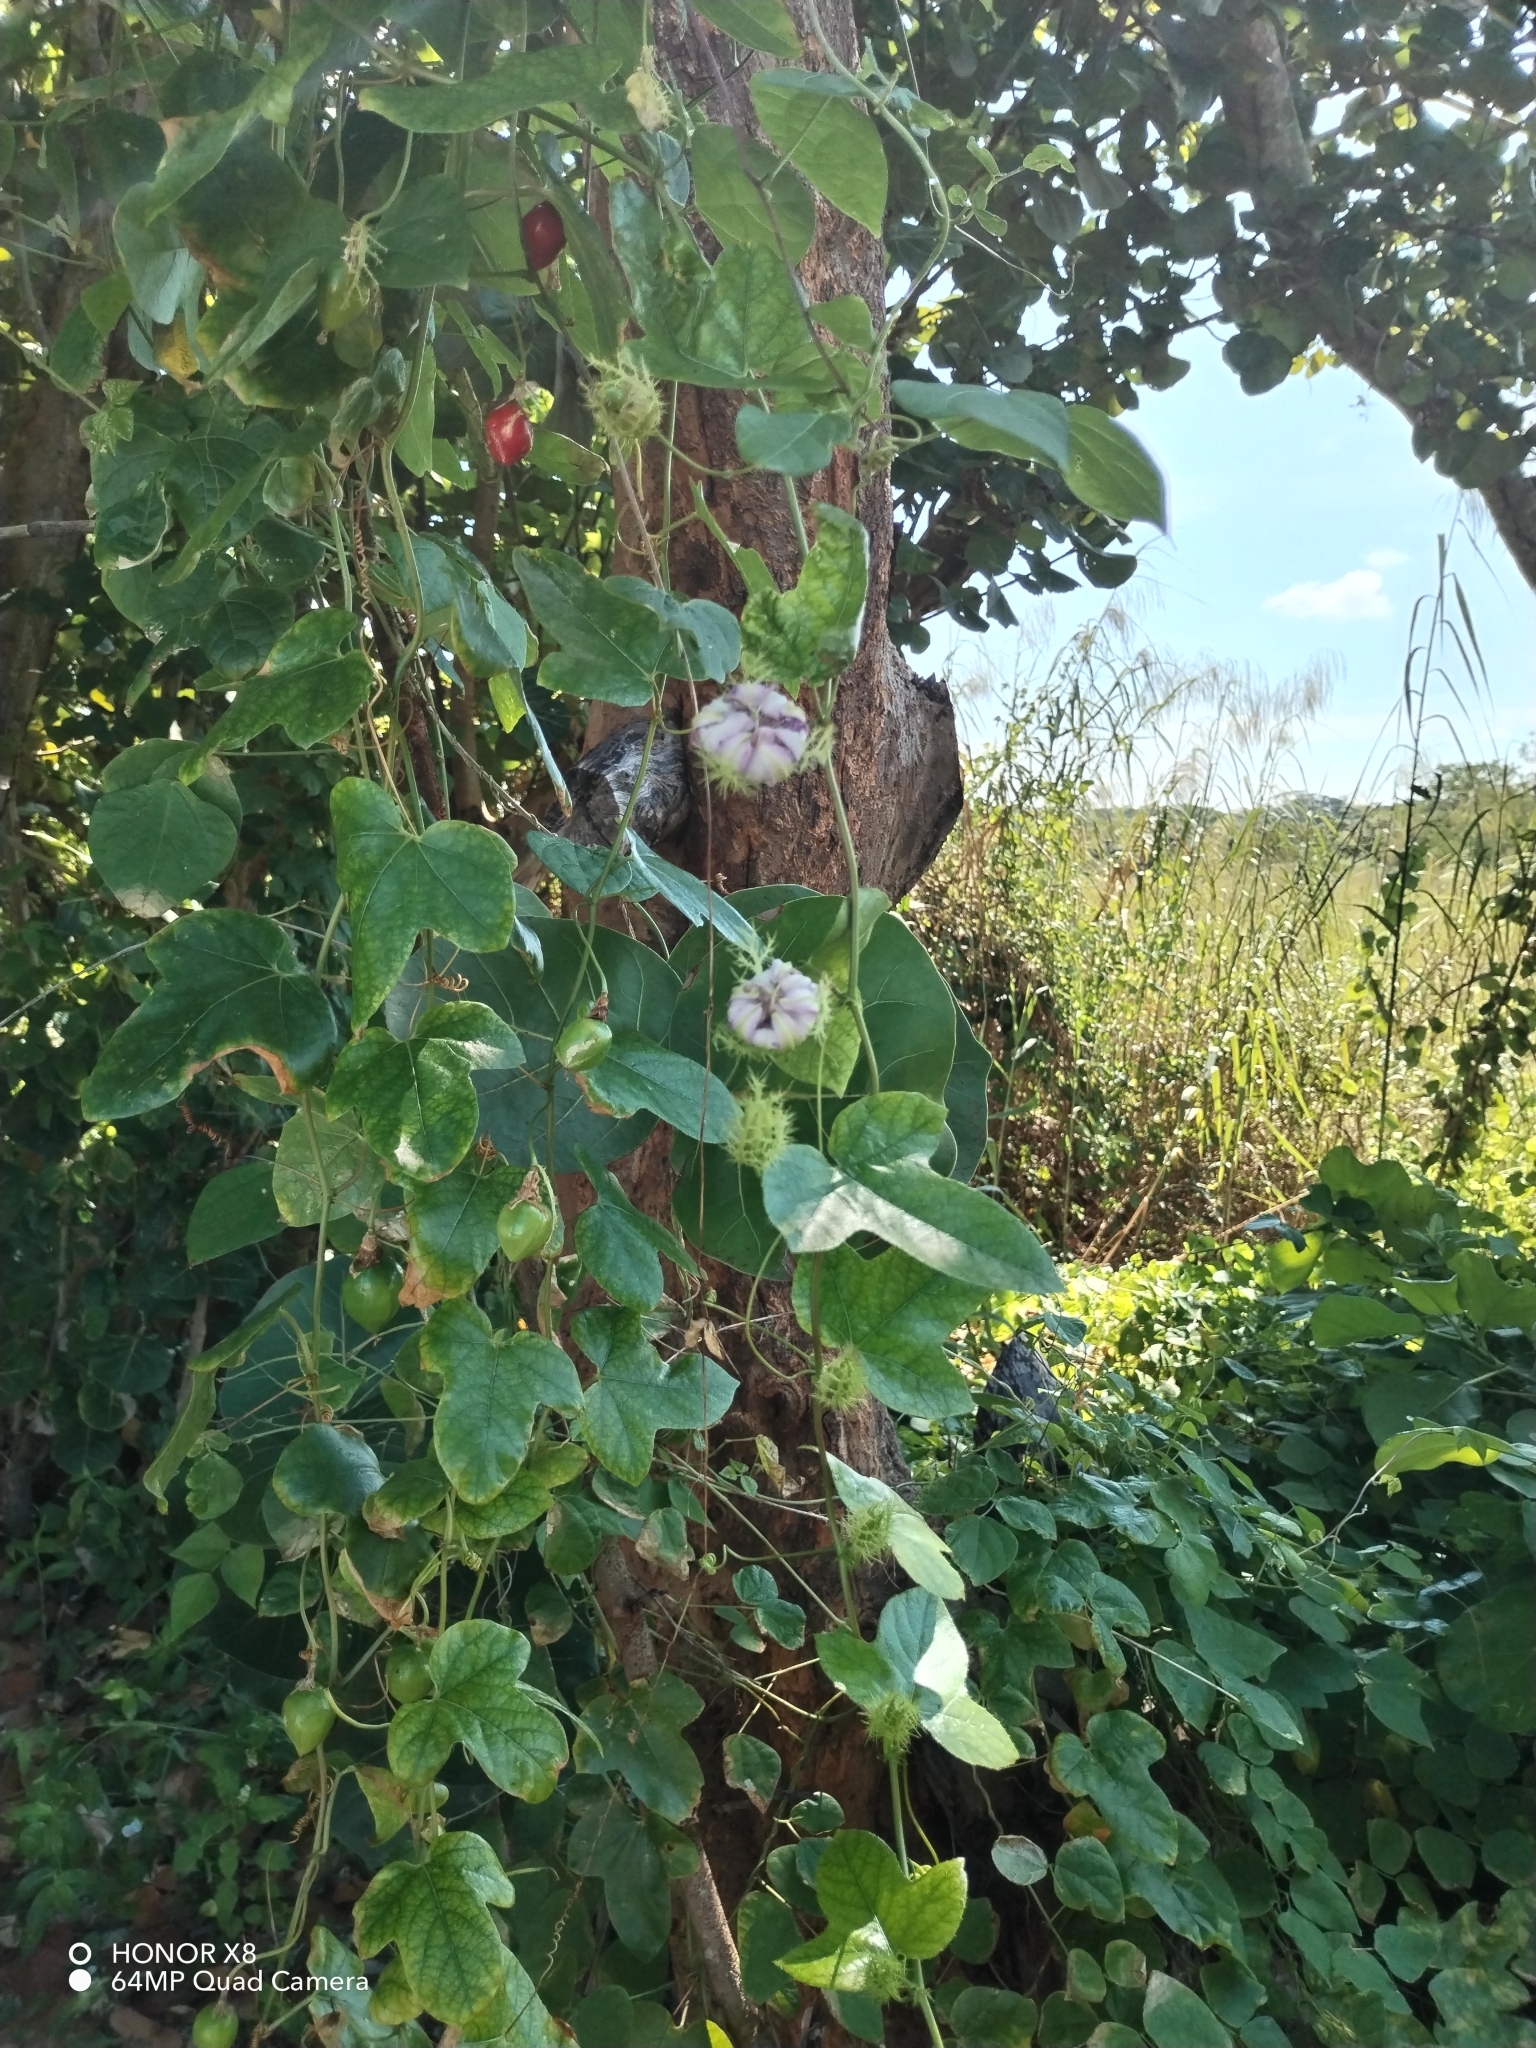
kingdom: Plantae
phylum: Tracheophyta
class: Magnoliopsida
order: Malpighiales
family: Passifloraceae
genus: Passiflora
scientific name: Passiflora ciliata
